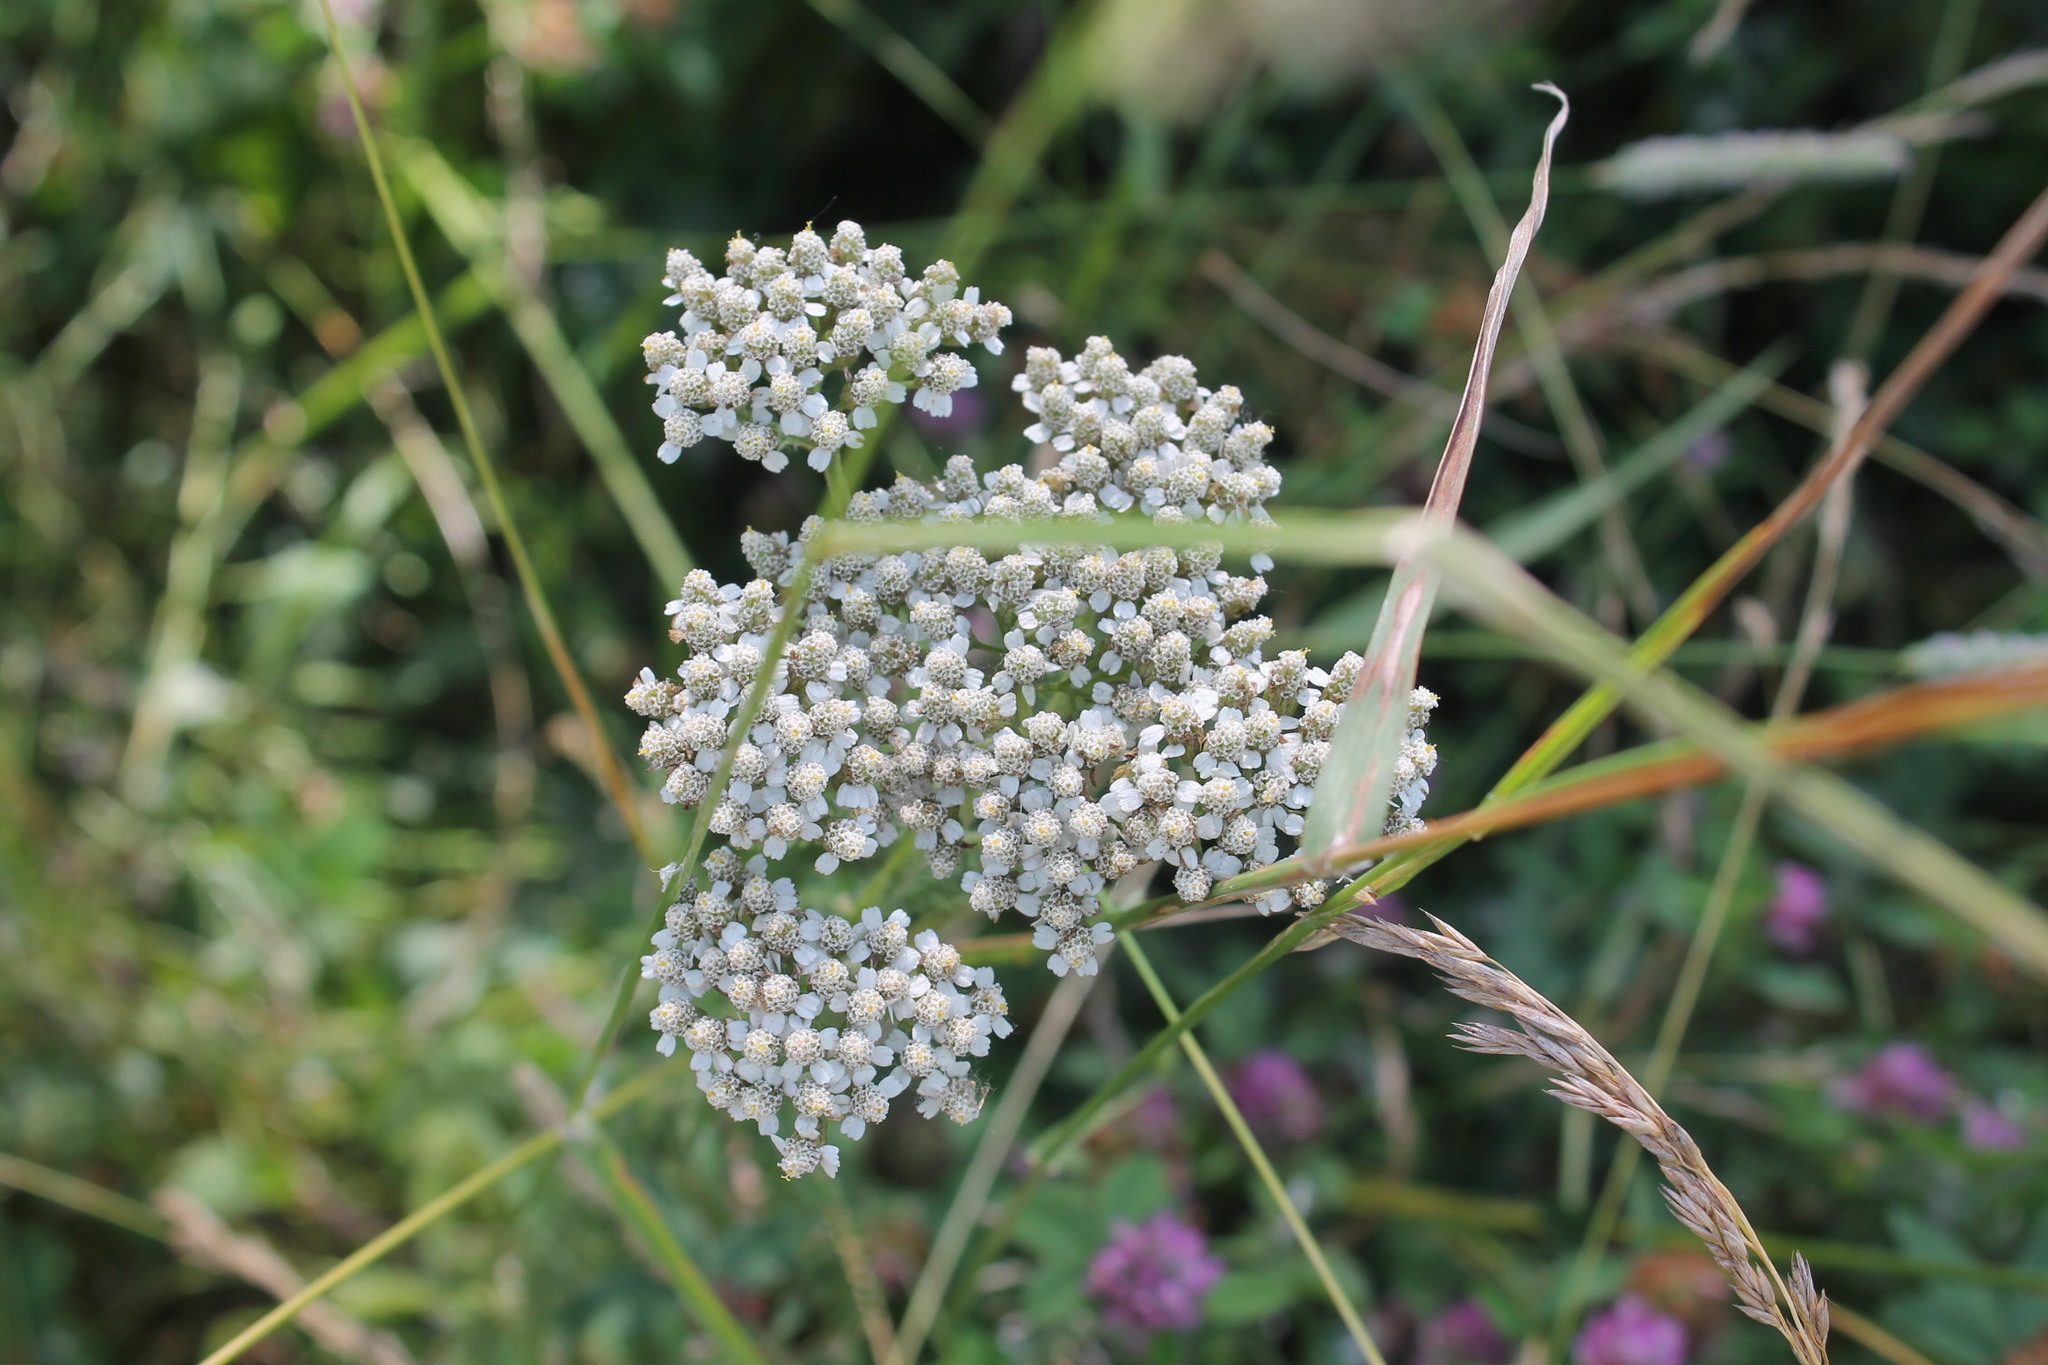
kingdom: Plantae
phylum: Tracheophyta
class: Magnoliopsida
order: Asterales
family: Asteraceae
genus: Achillea
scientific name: Achillea millefolium
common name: Yarrow
